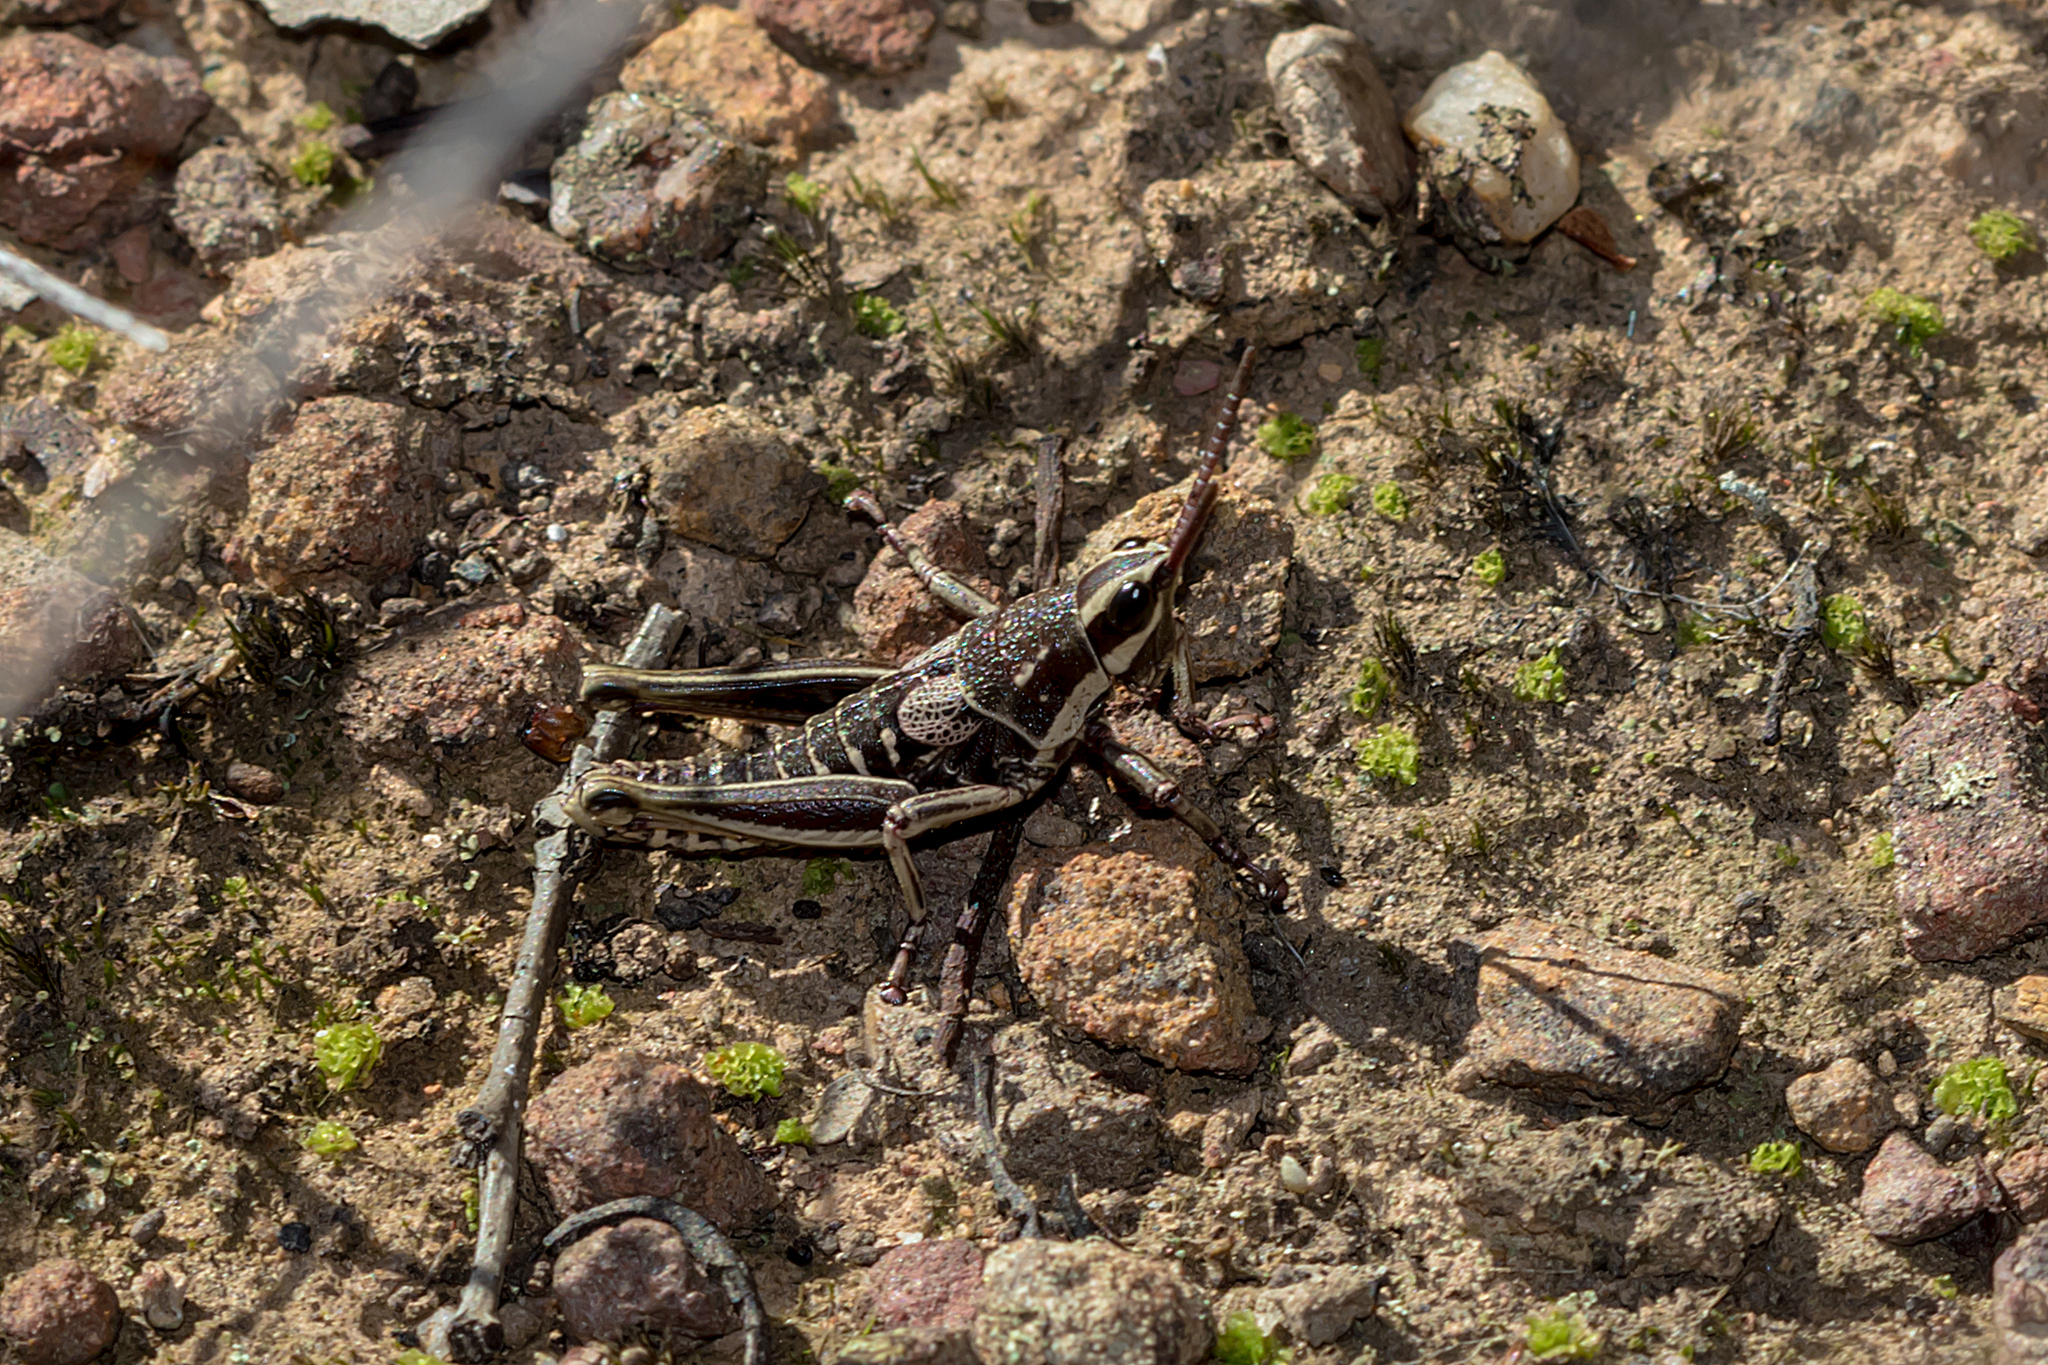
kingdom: Animalia
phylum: Arthropoda
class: Insecta
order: Orthoptera
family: Pyrgomorphidae
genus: Monistria
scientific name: Monistria discrepans
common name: Common pyrgomorph
